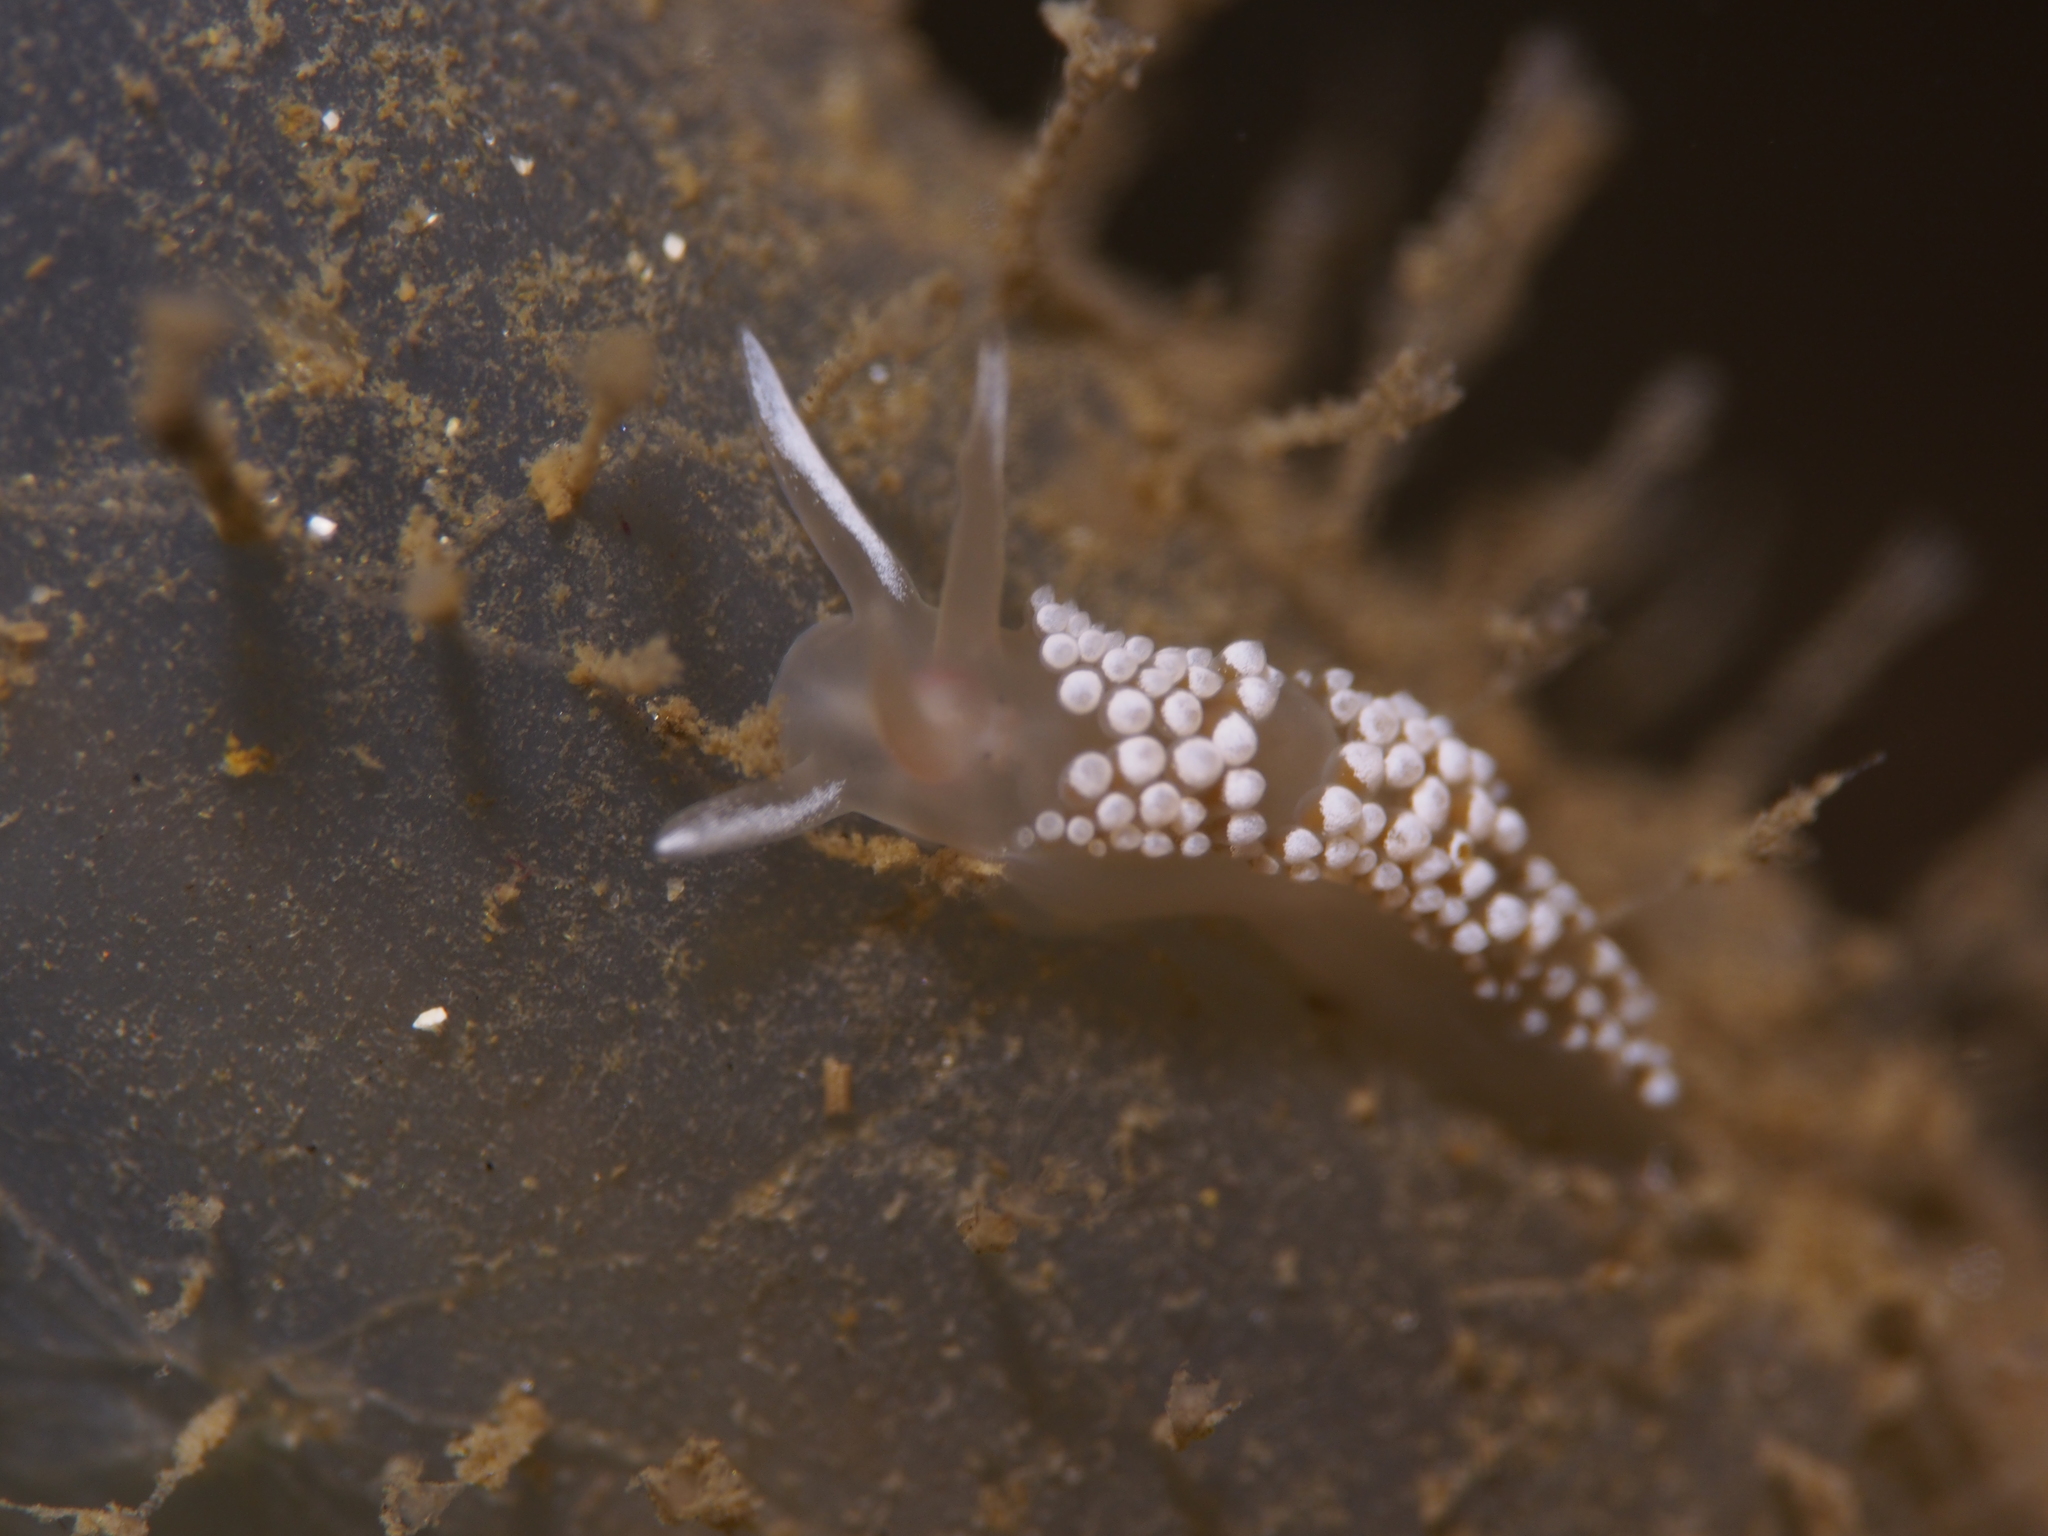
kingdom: Animalia
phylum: Mollusca
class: Gastropoda
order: Nudibranchia
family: Coryphellidae
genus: Coryphella
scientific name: Coryphella verrucosa
